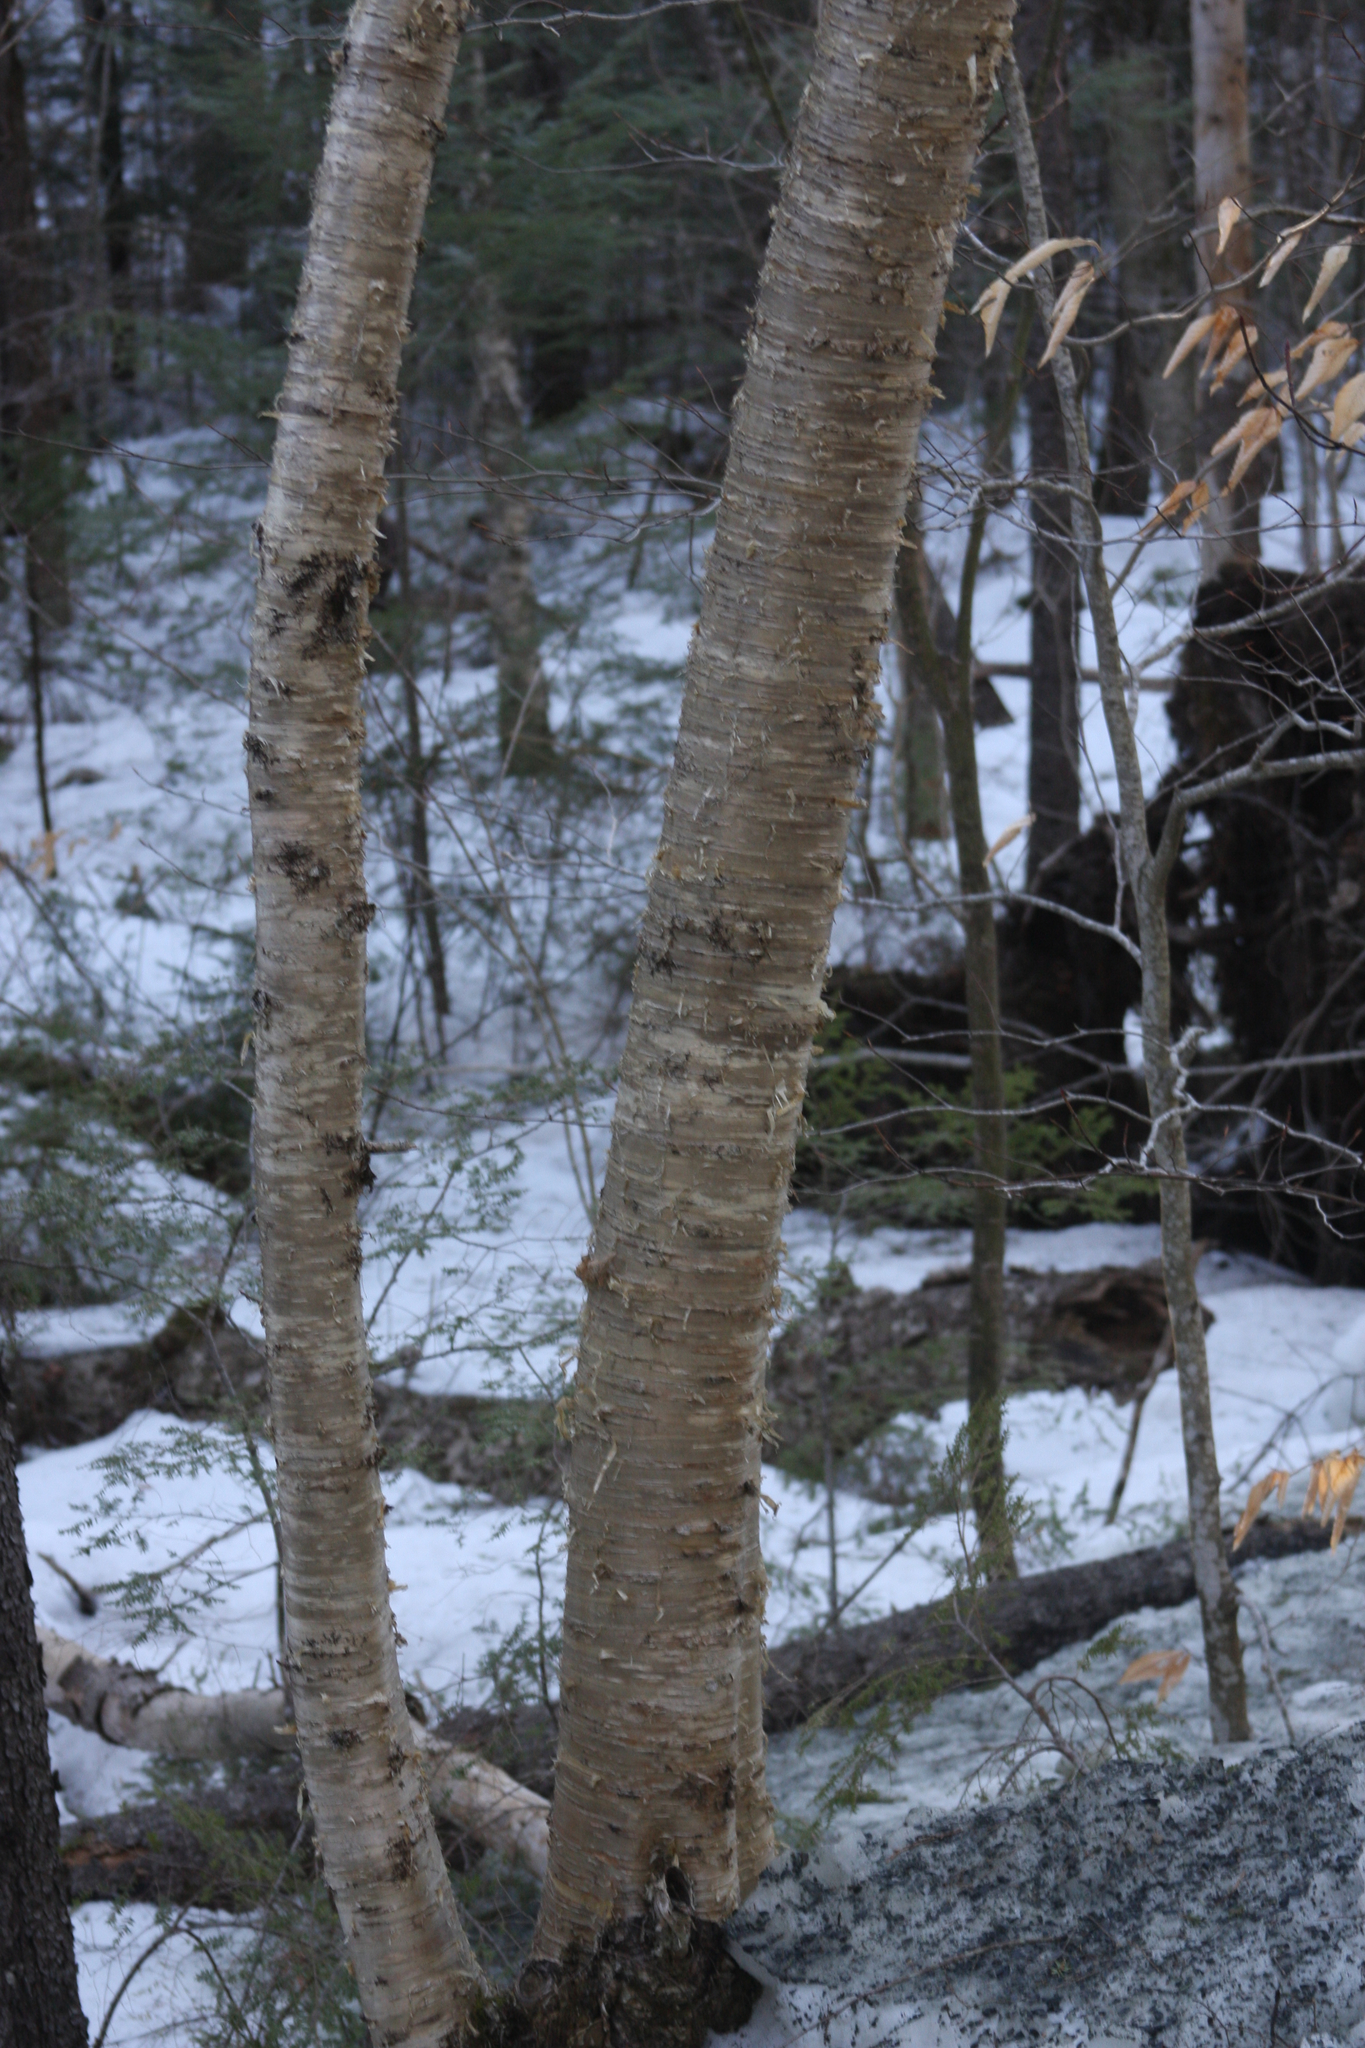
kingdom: Plantae
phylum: Tracheophyta
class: Magnoliopsida
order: Fagales
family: Betulaceae
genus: Betula
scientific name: Betula alleghaniensis
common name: Yellow birch
